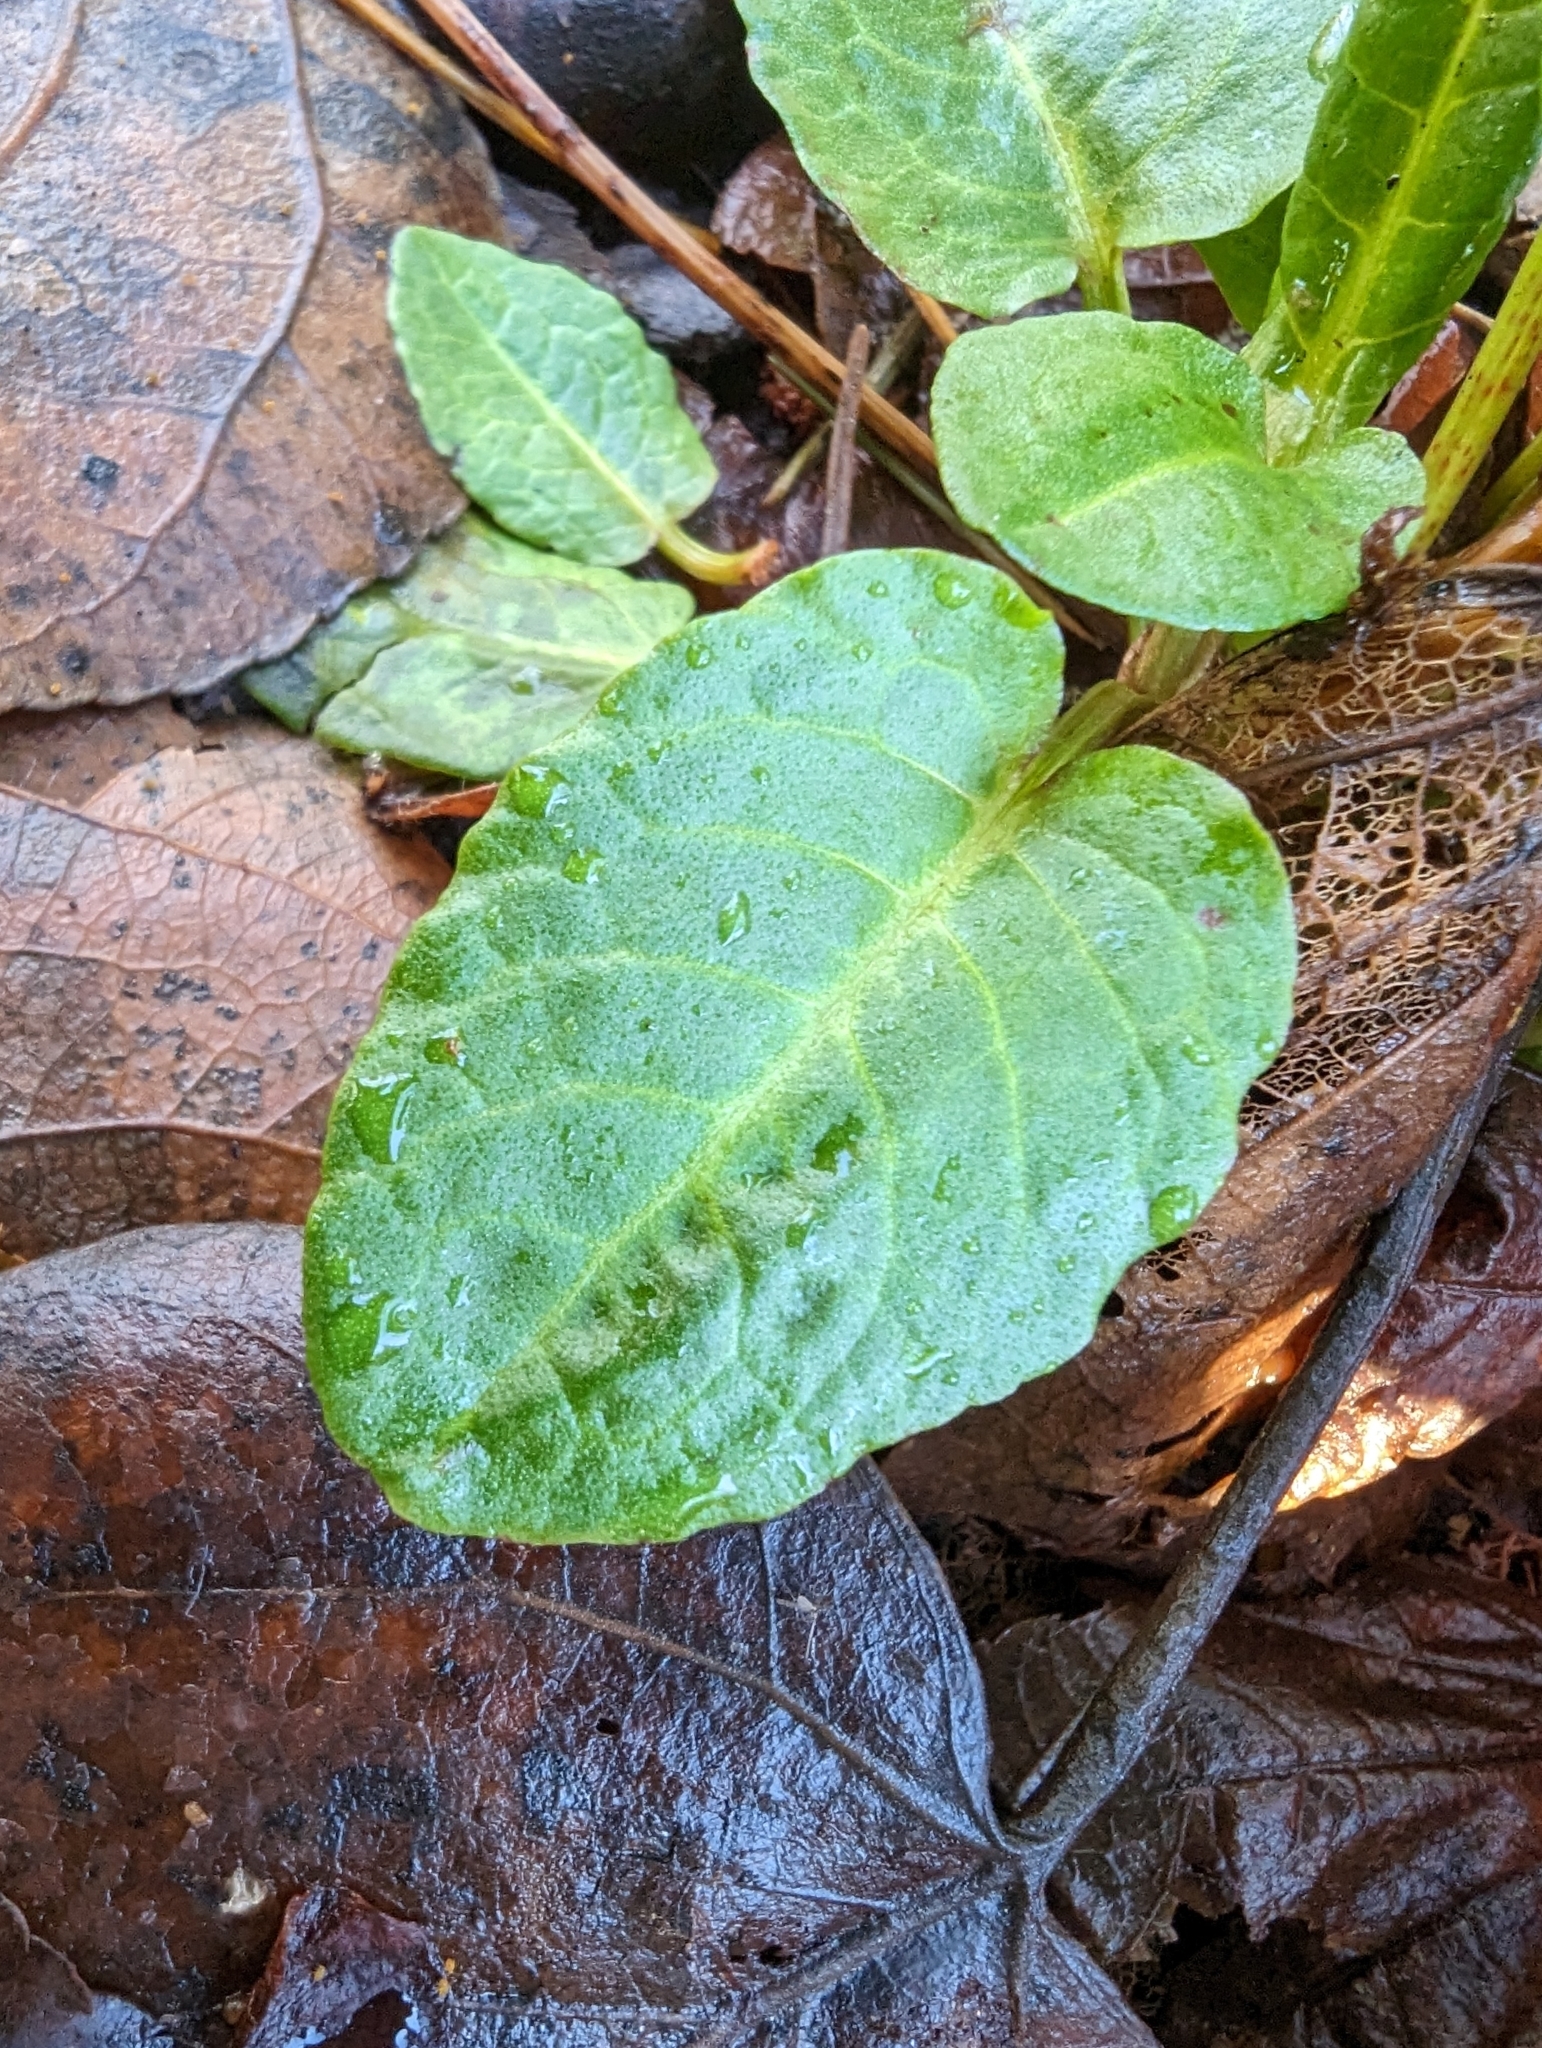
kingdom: Plantae
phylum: Tracheophyta
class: Magnoliopsida
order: Caryophyllales
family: Polygonaceae
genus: Rumex
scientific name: Rumex obtusifolius
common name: Bitter dock
